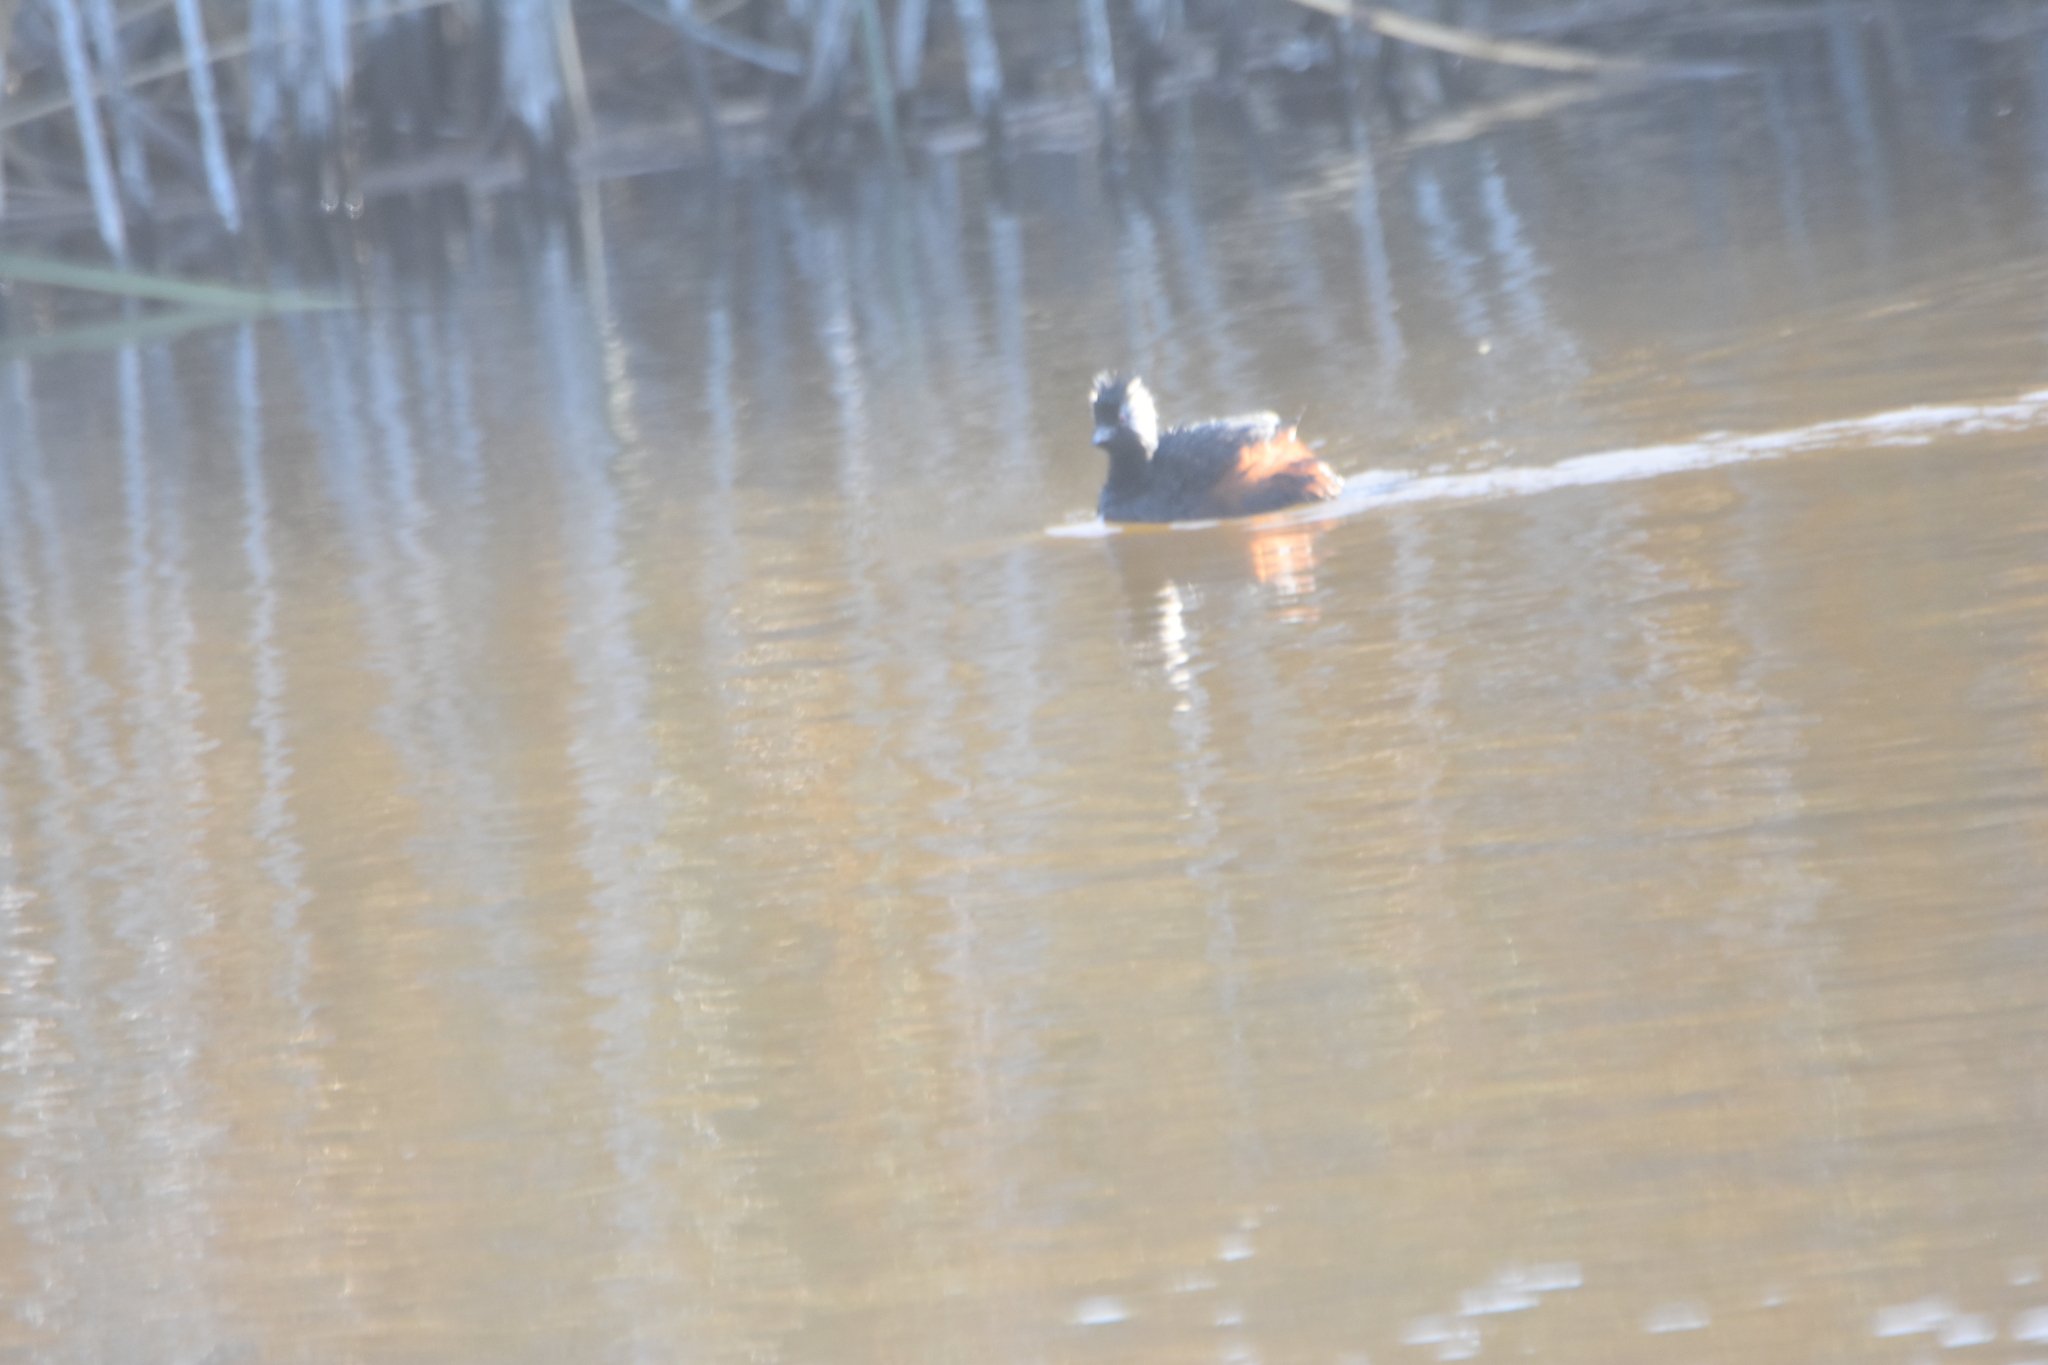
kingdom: Animalia
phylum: Chordata
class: Aves
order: Podicipediformes
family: Podicipedidae
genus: Rollandia
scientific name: Rollandia rolland
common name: White-tufted grebe
